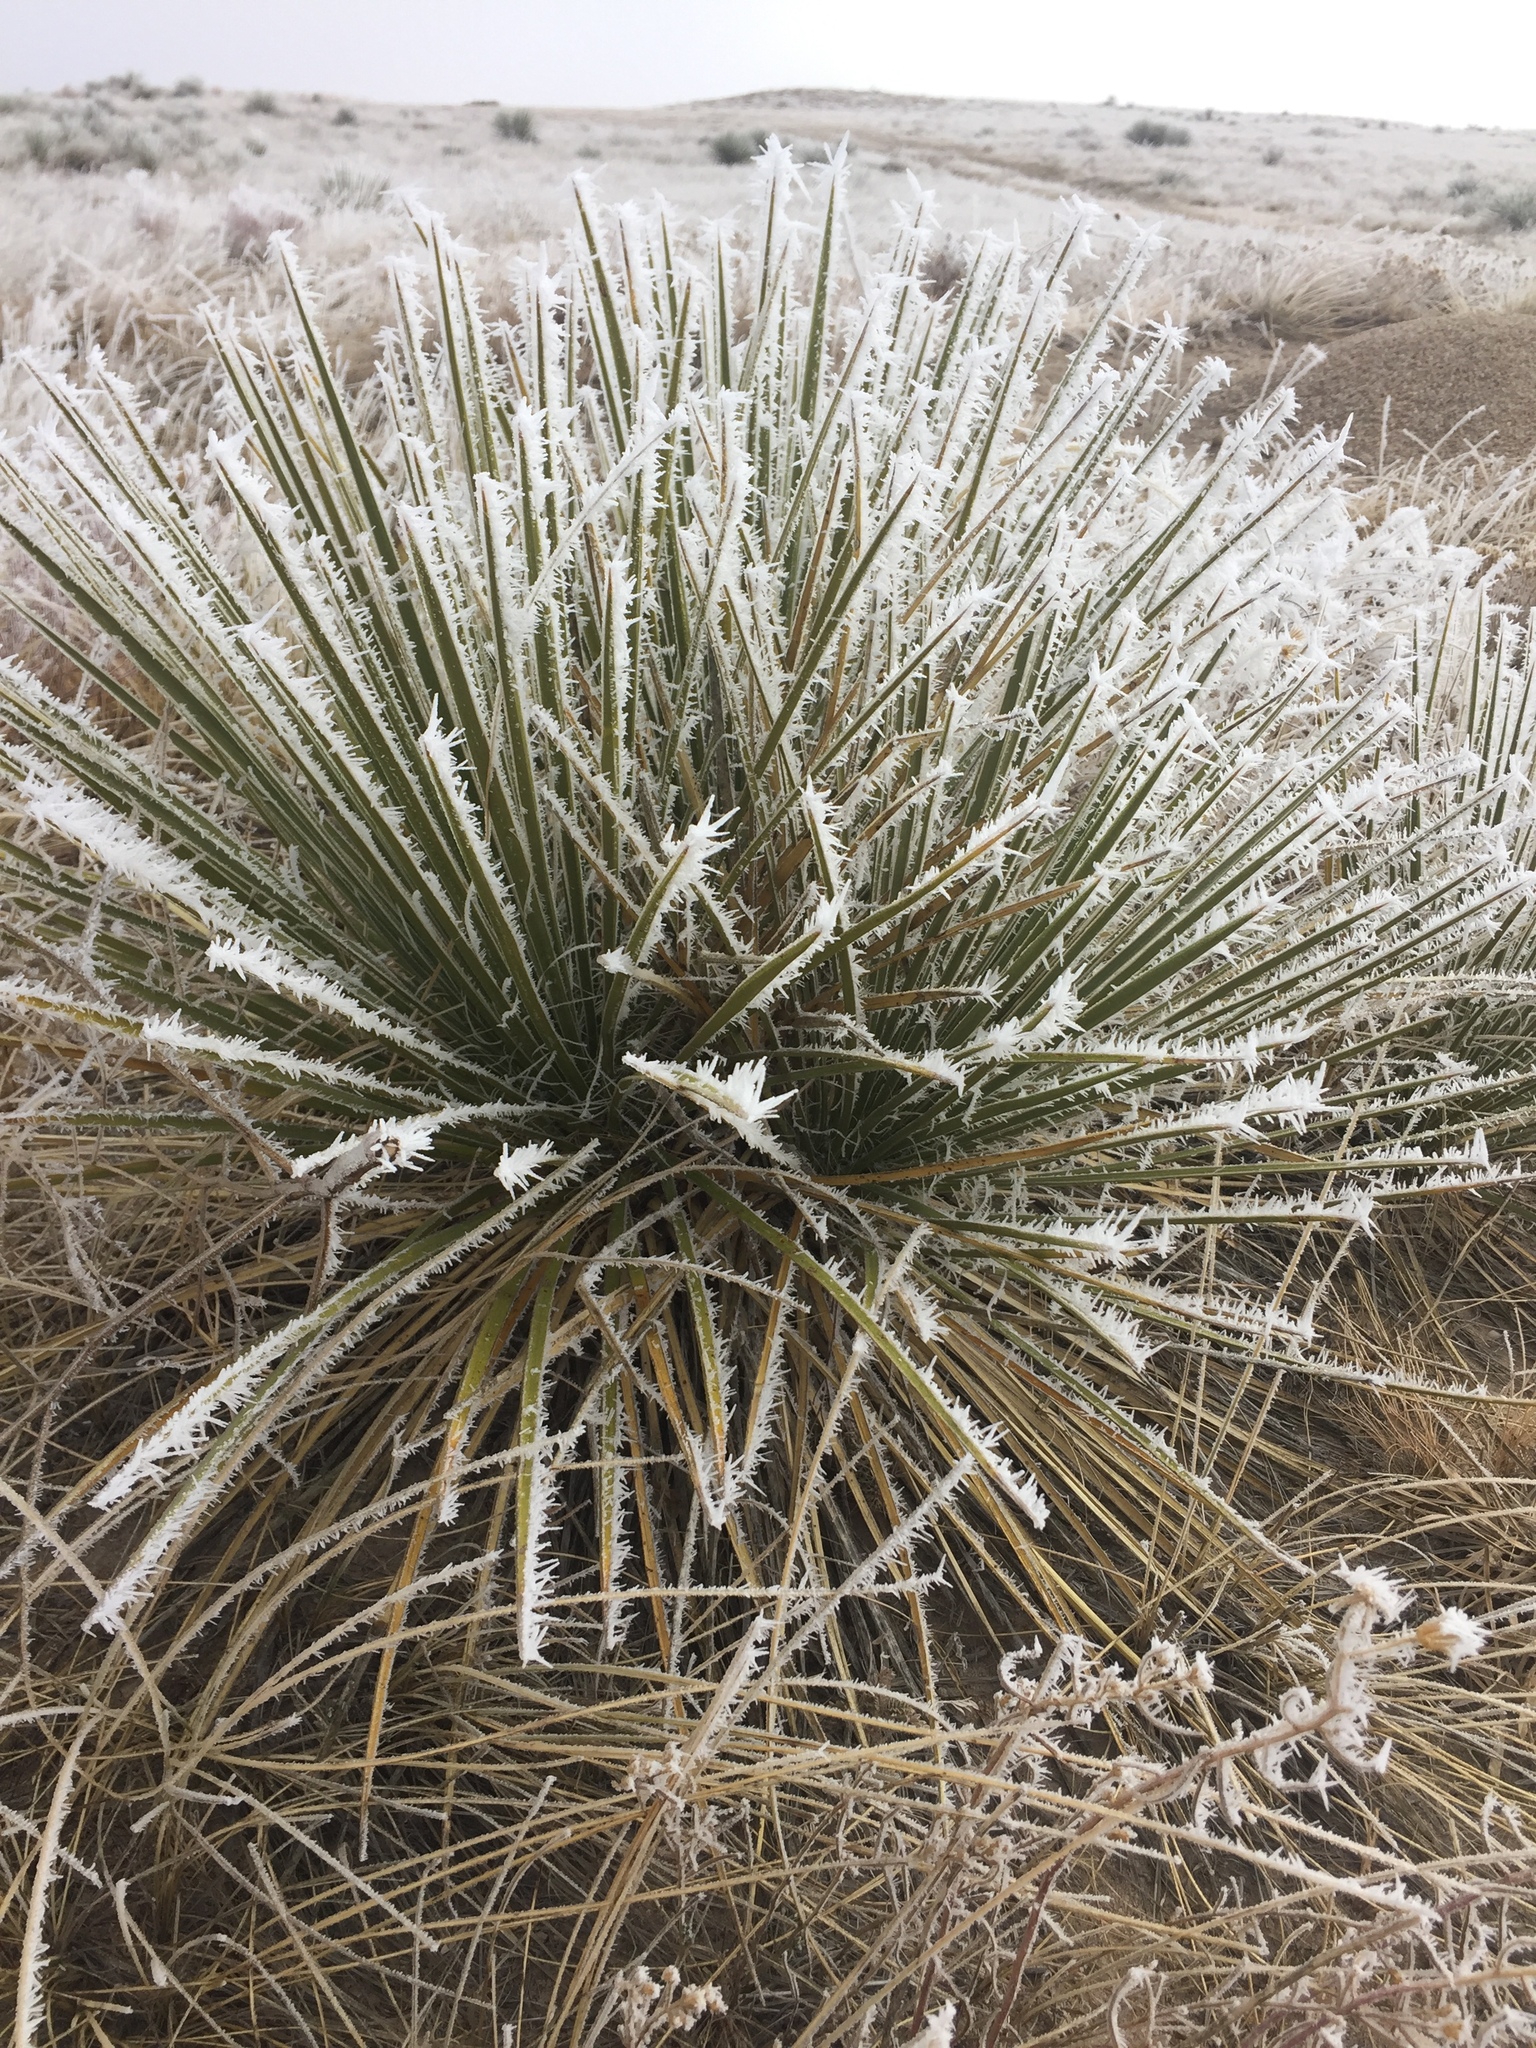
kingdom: Plantae
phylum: Tracheophyta
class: Liliopsida
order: Asparagales
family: Asparagaceae
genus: Yucca
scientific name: Yucca glauca
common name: Great plains yucca
